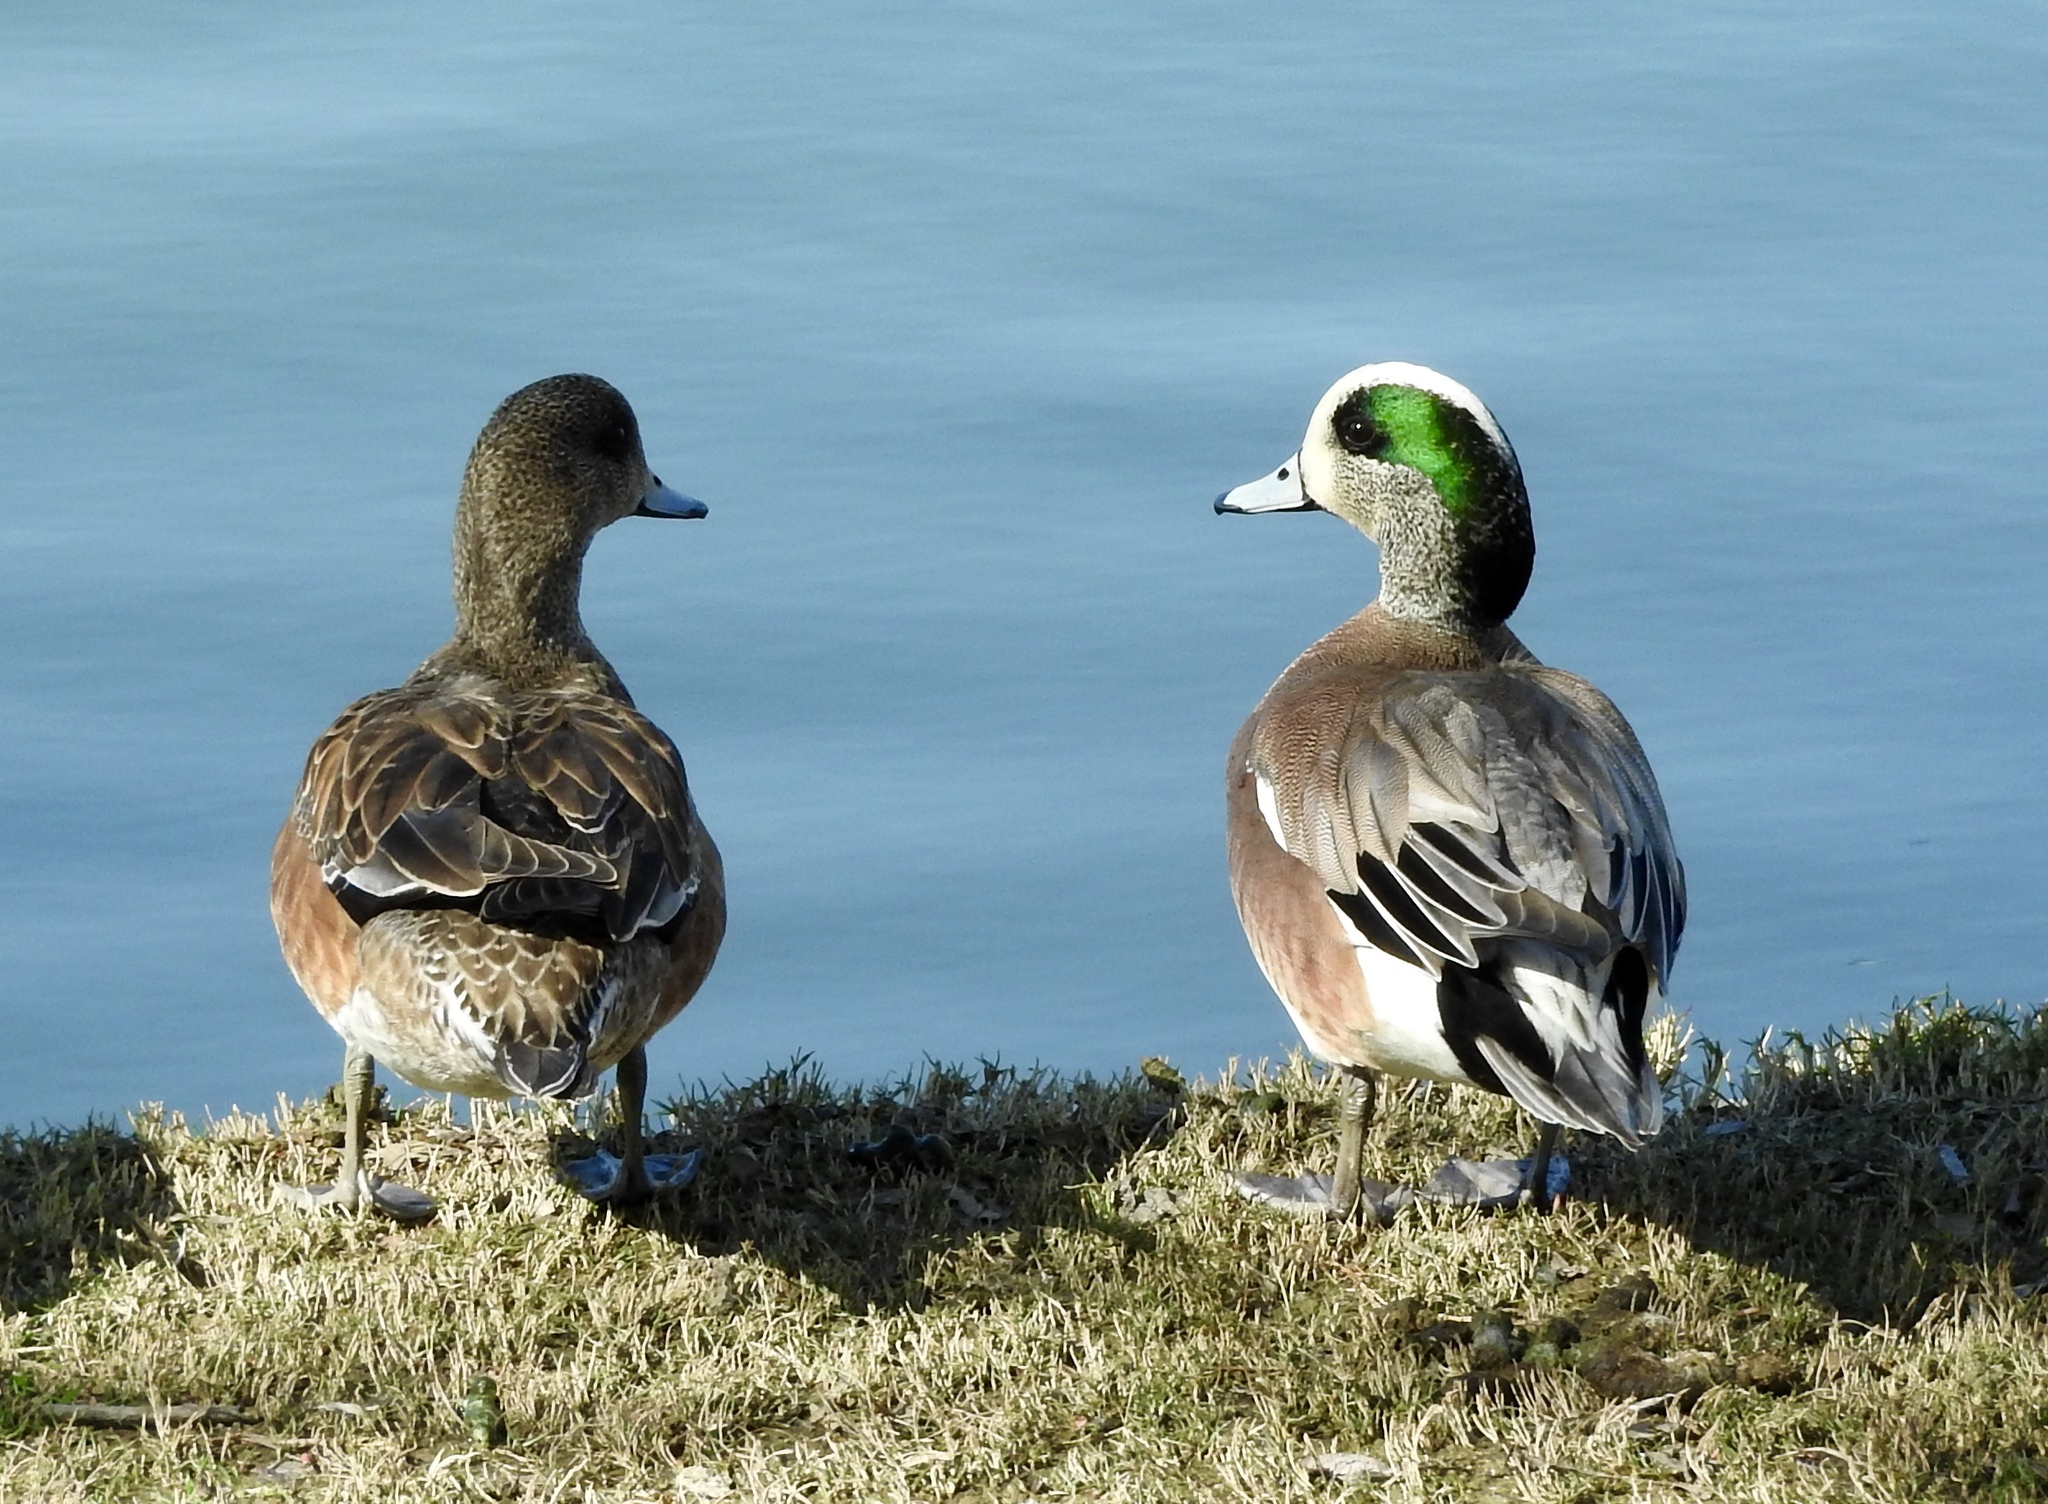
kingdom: Animalia
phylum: Chordata
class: Aves
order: Anseriformes
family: Anatidae
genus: Mareca
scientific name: Mareca americana
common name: American wigeon
